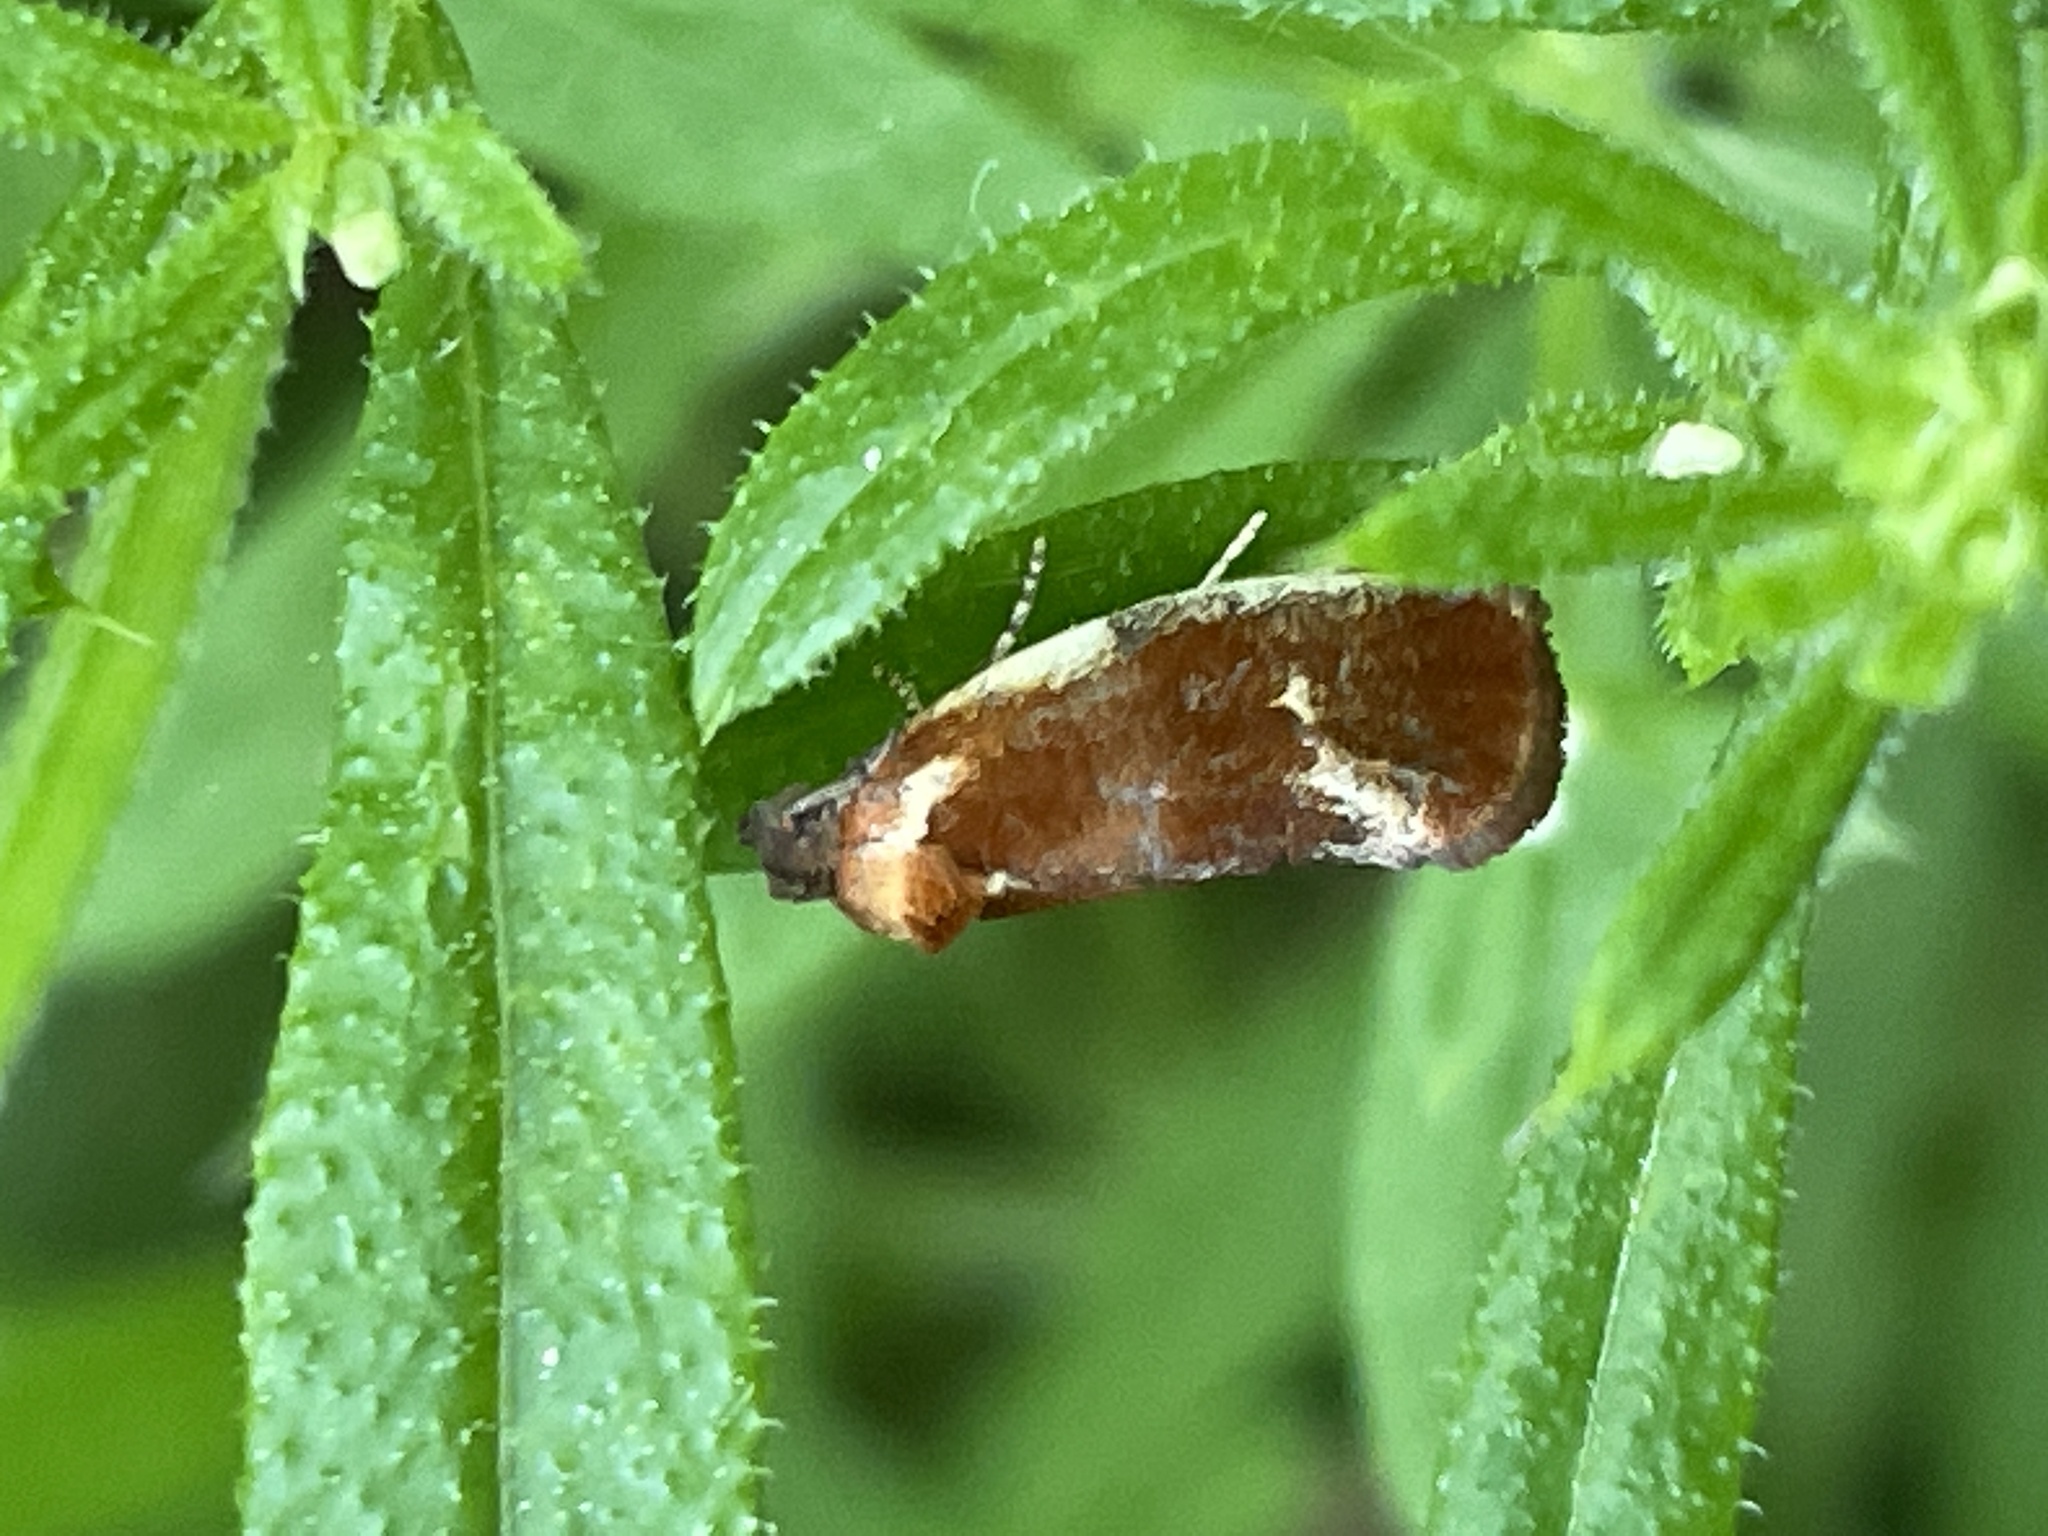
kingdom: Animalia
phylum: Arthropoda
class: Insecta
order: Lepidoptera
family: Tortricidae
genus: Eulia
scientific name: Eulia ministrana
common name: Brassy twist
